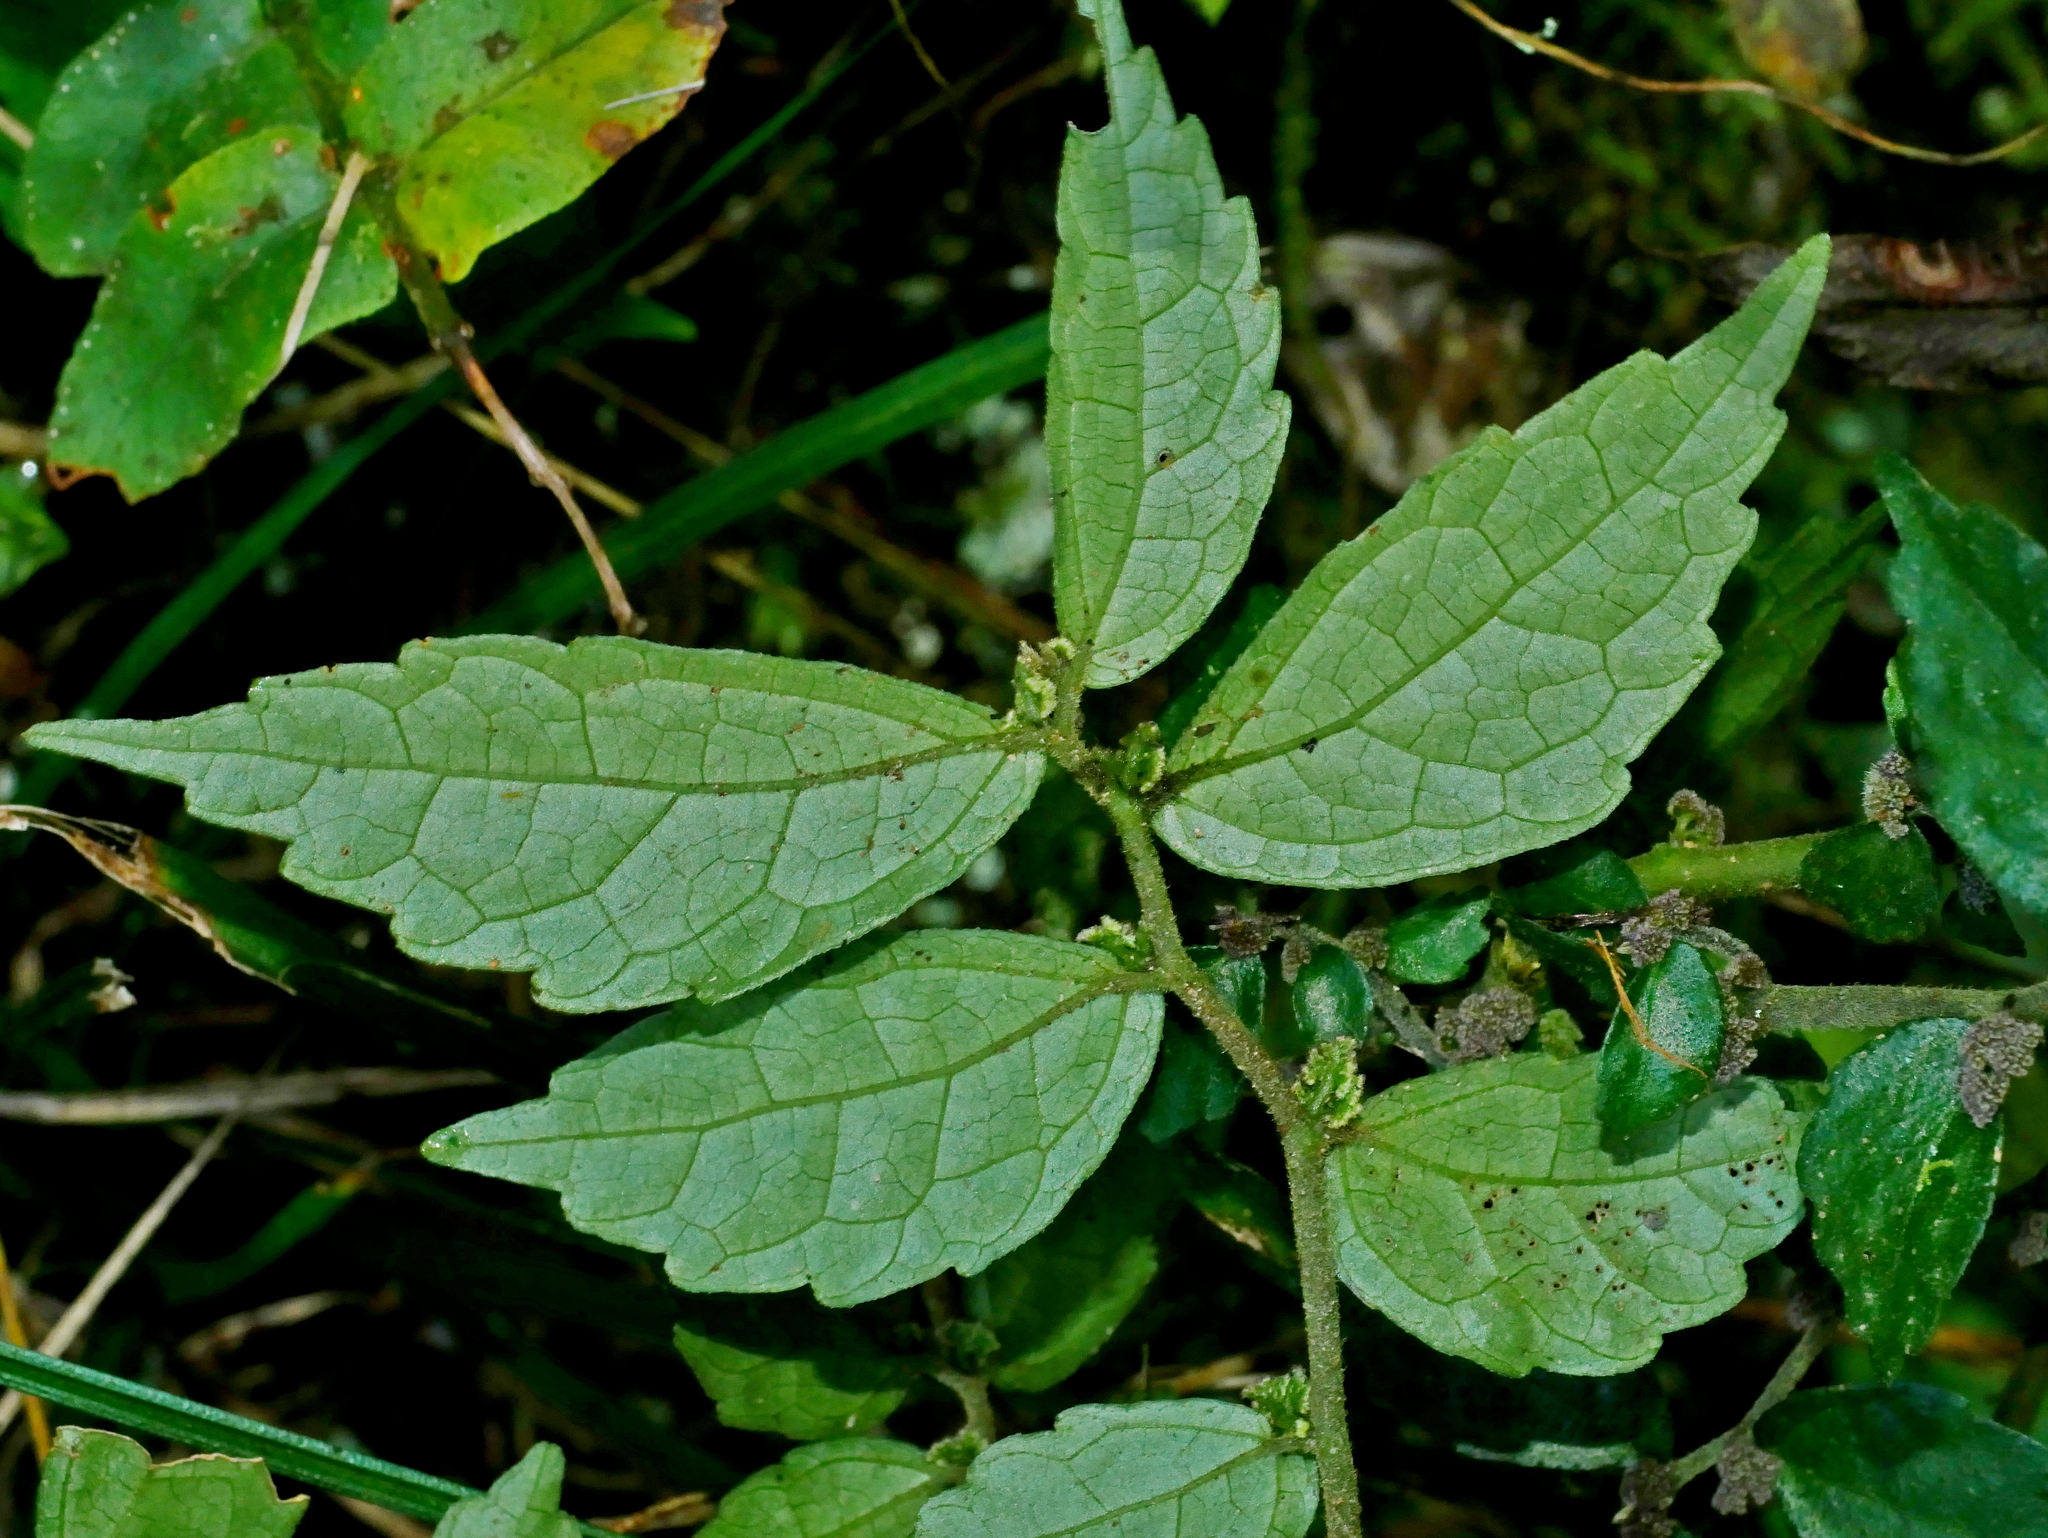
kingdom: Plantae
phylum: Tracheophyta
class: Magnoliopsida
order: Rosales
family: Urticaceae
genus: Elatostema
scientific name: Elatostema scabrum
